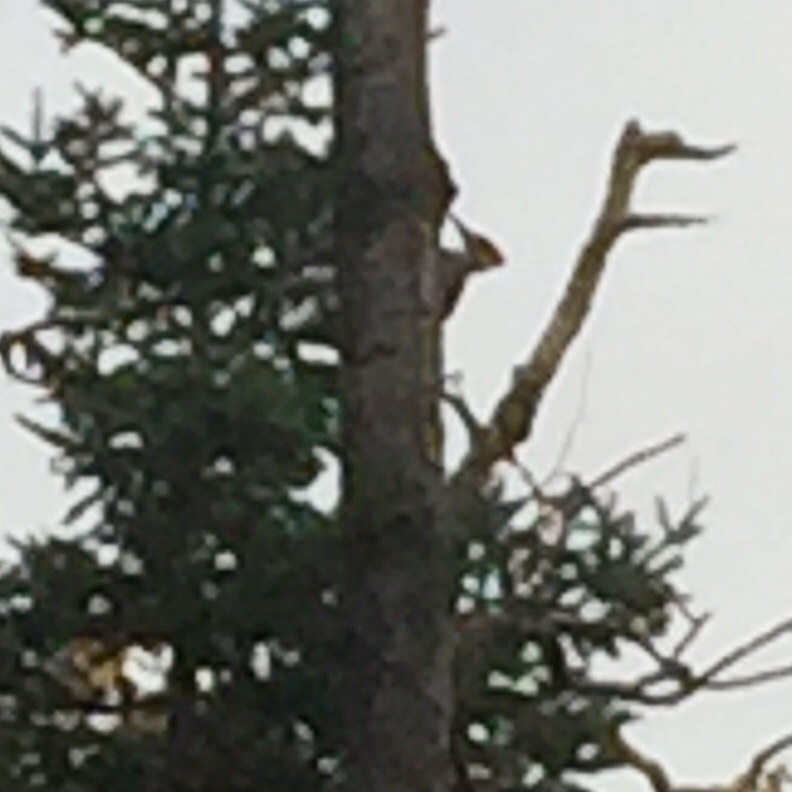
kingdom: Animalia
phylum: Chordata
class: Aves
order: Piciformes
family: Picidae
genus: Dryocopus
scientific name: Dryocopus pileatus
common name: Pileated woodpecker
